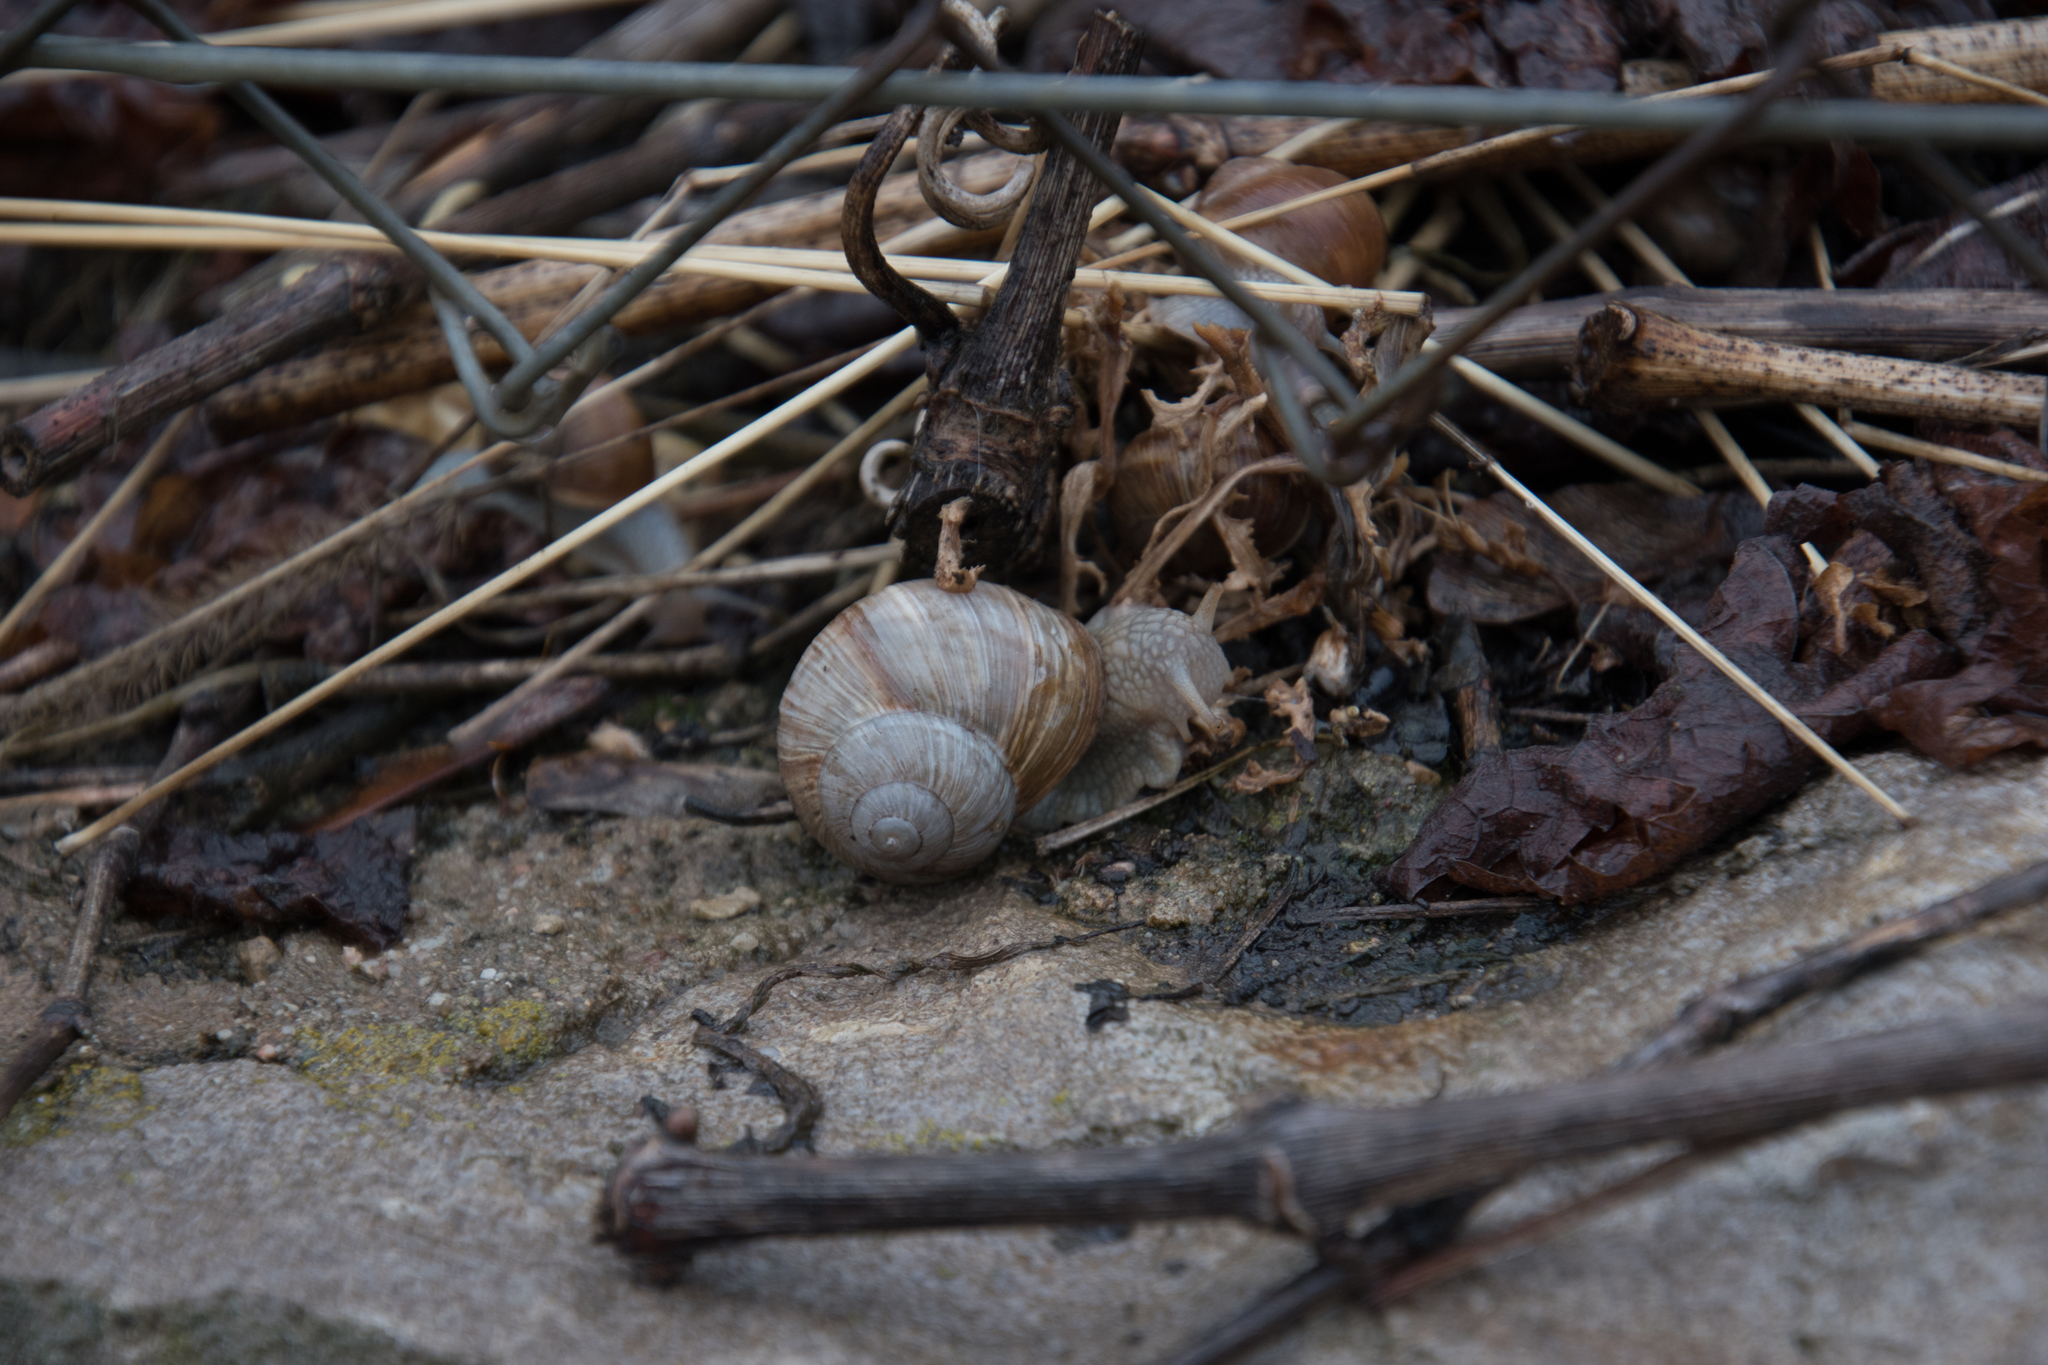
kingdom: Animalia
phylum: Mollusca
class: Gastropoda
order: Stylommatophora
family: Helicidae
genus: Helix
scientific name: Helix pomatia
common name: Roman snail
